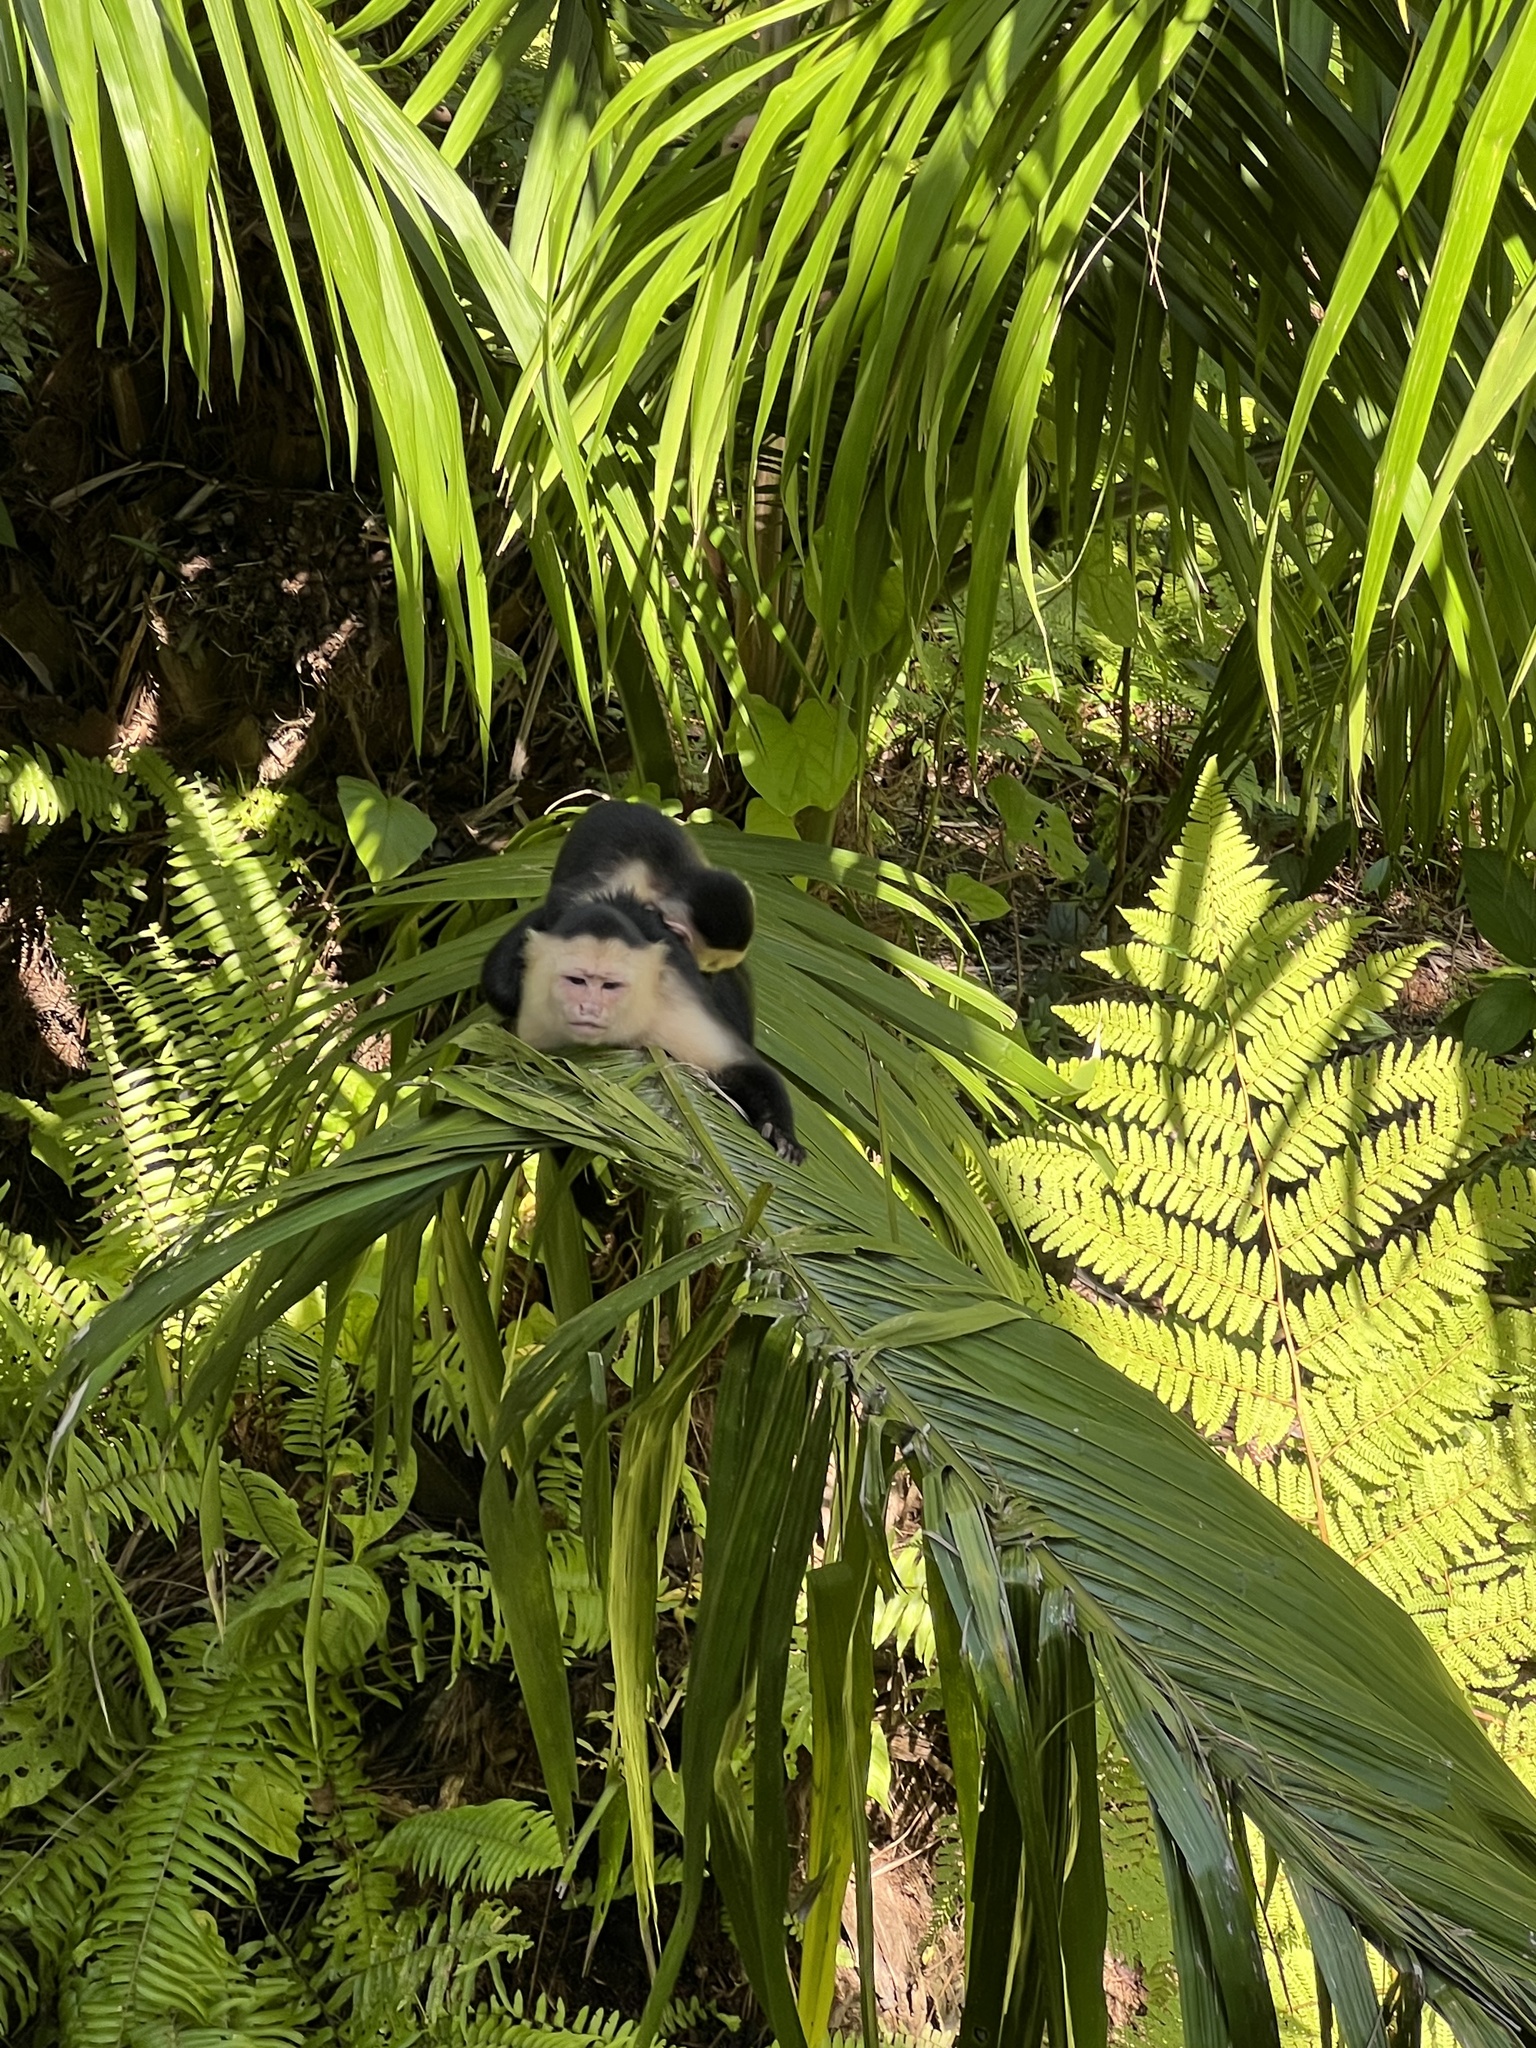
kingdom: Animalia
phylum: Chordata
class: Mammalia
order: Primates
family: Cebidae
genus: Cebus
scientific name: Cebus imitator
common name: Panamanian white-faced capuchin
